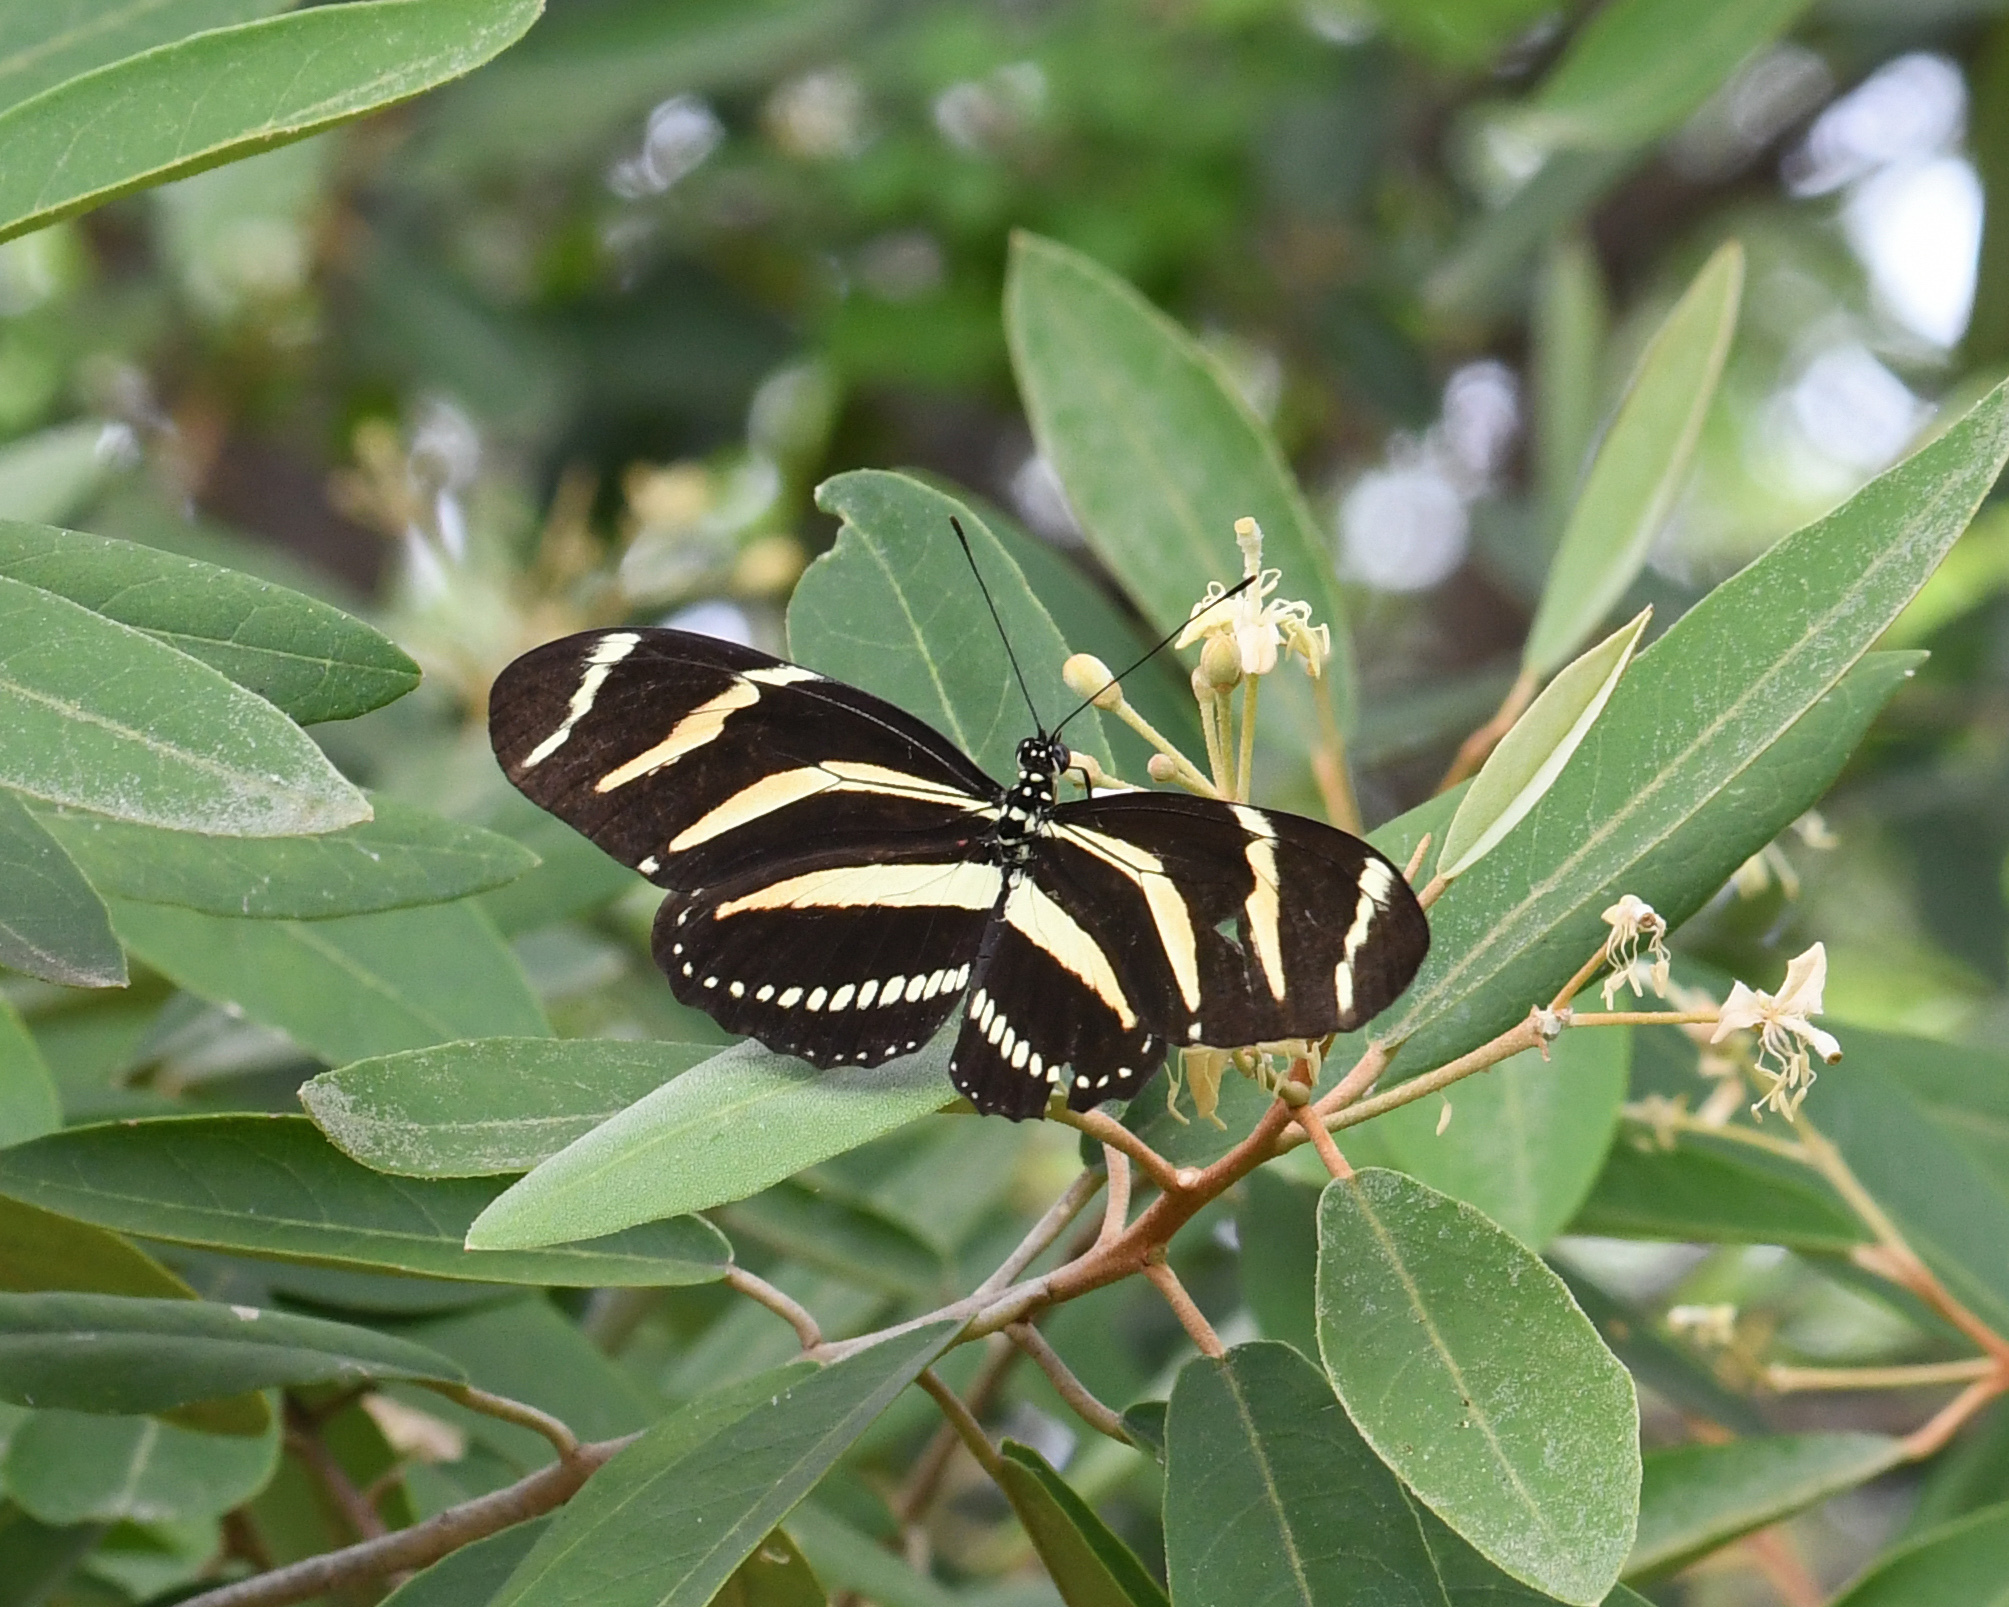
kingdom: Animalia
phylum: Arthropoda
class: Insecta
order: Lepidoptera
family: Nymphalidae
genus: Heliconius
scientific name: Heliconius charithonia
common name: Zebra long wing
